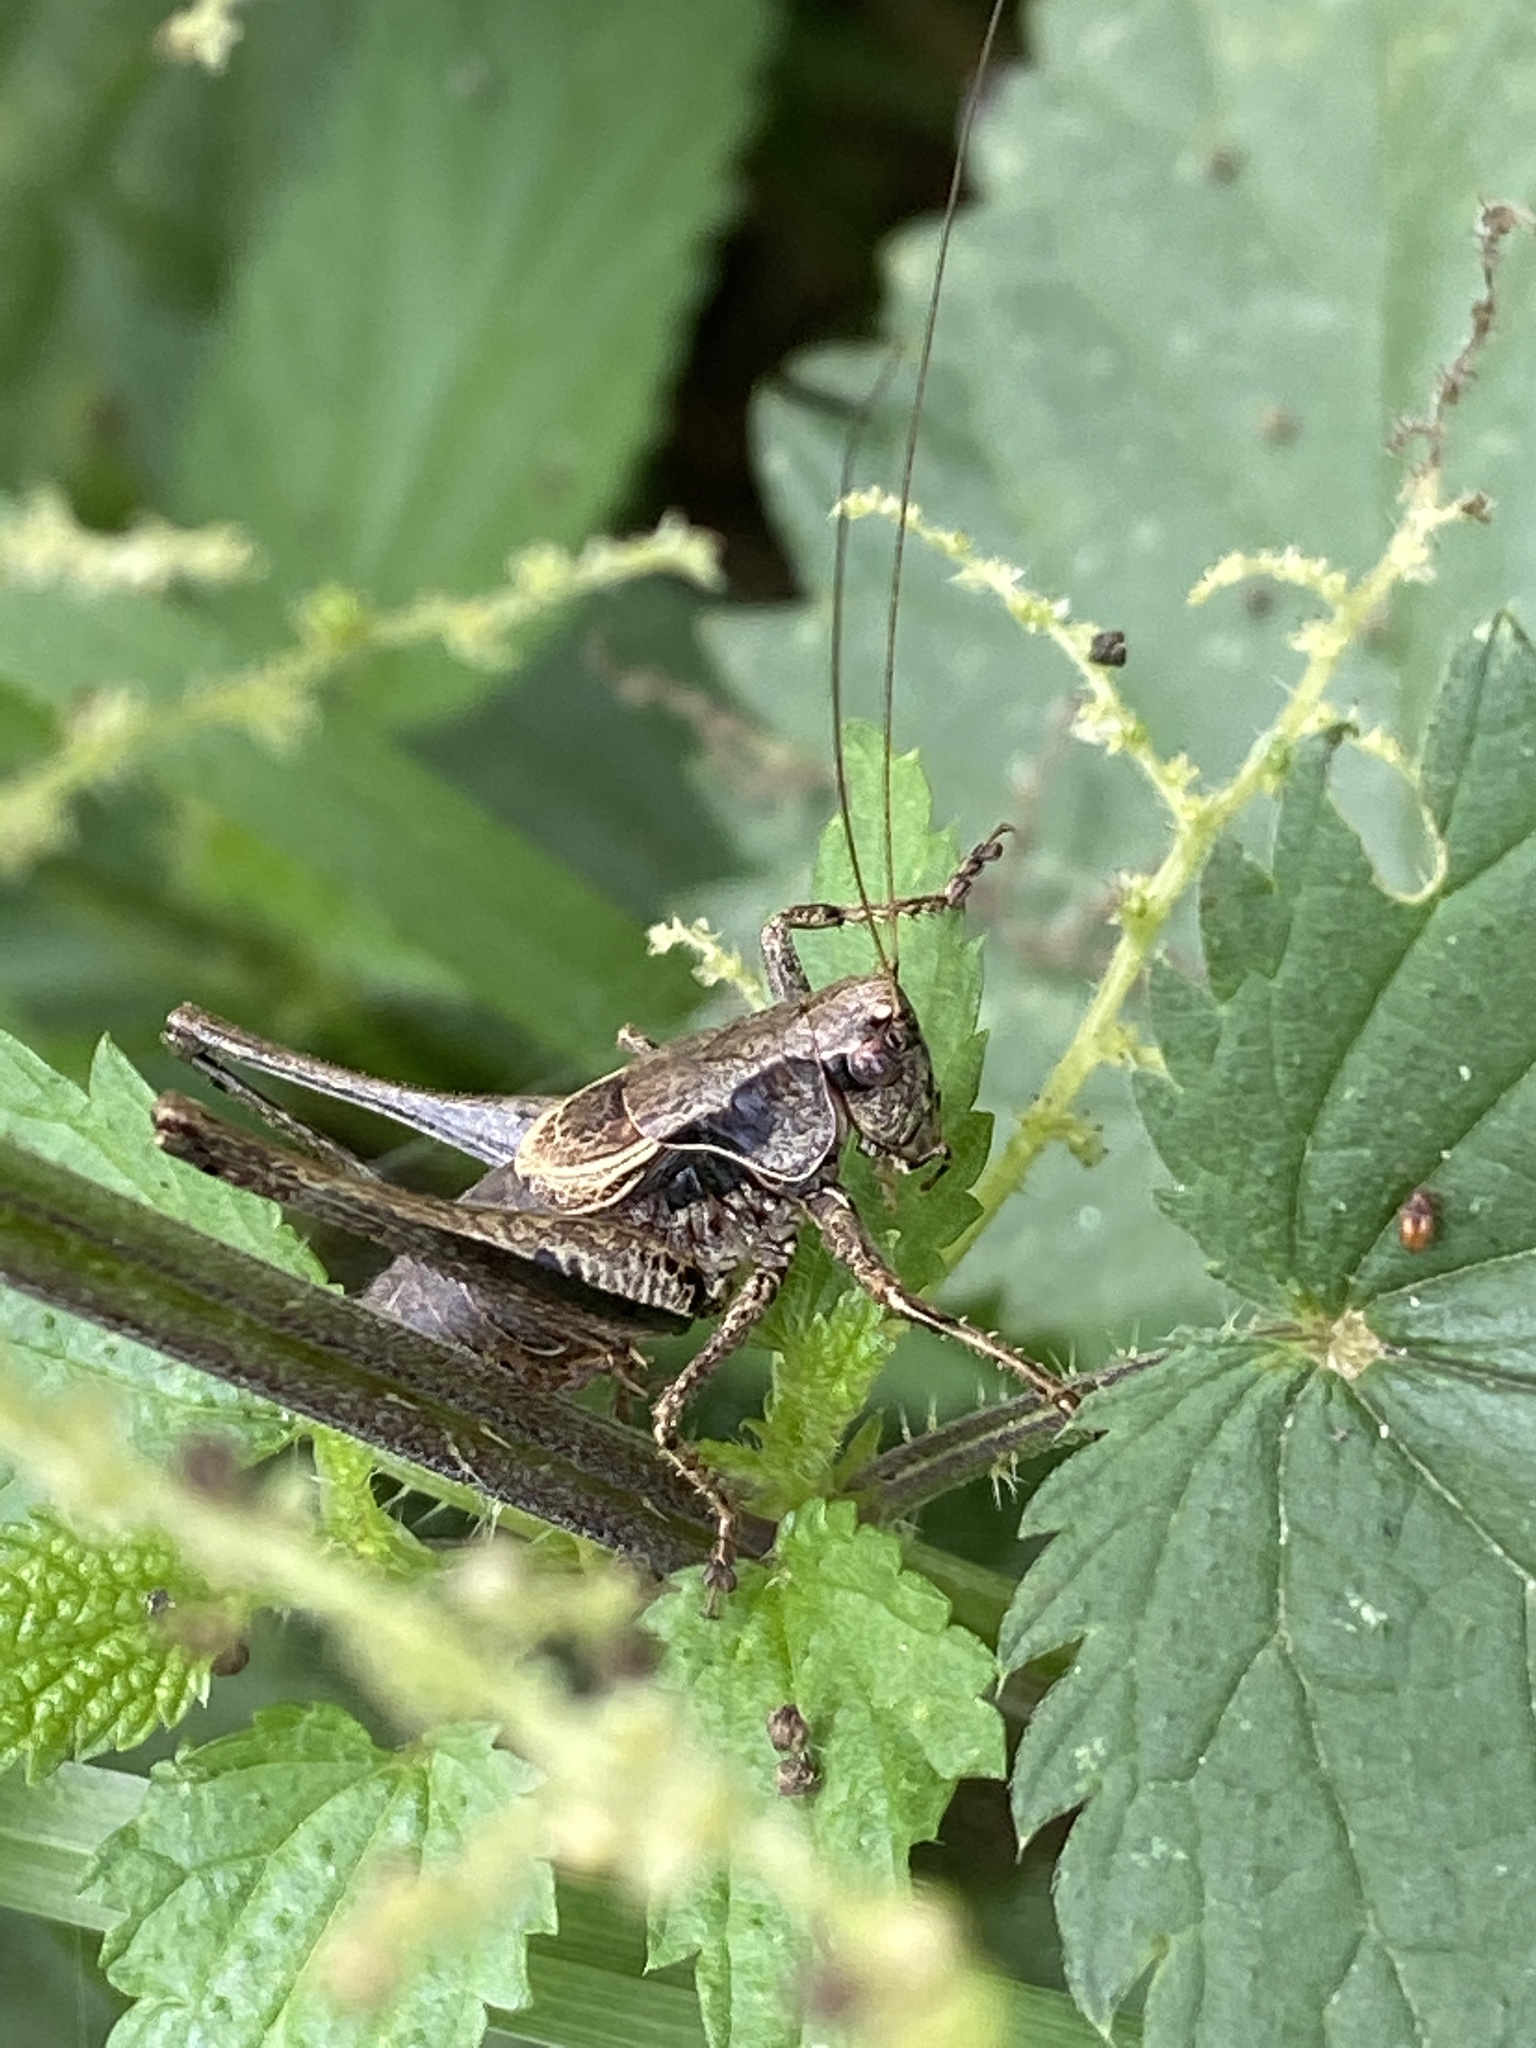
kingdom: Animalia
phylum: Arthropoda
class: Insecta
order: Orthoptera
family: Tettigoniidae
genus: Pholidoptera
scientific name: Pholidoptera griseoaptera
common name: Dark bush-cricket
